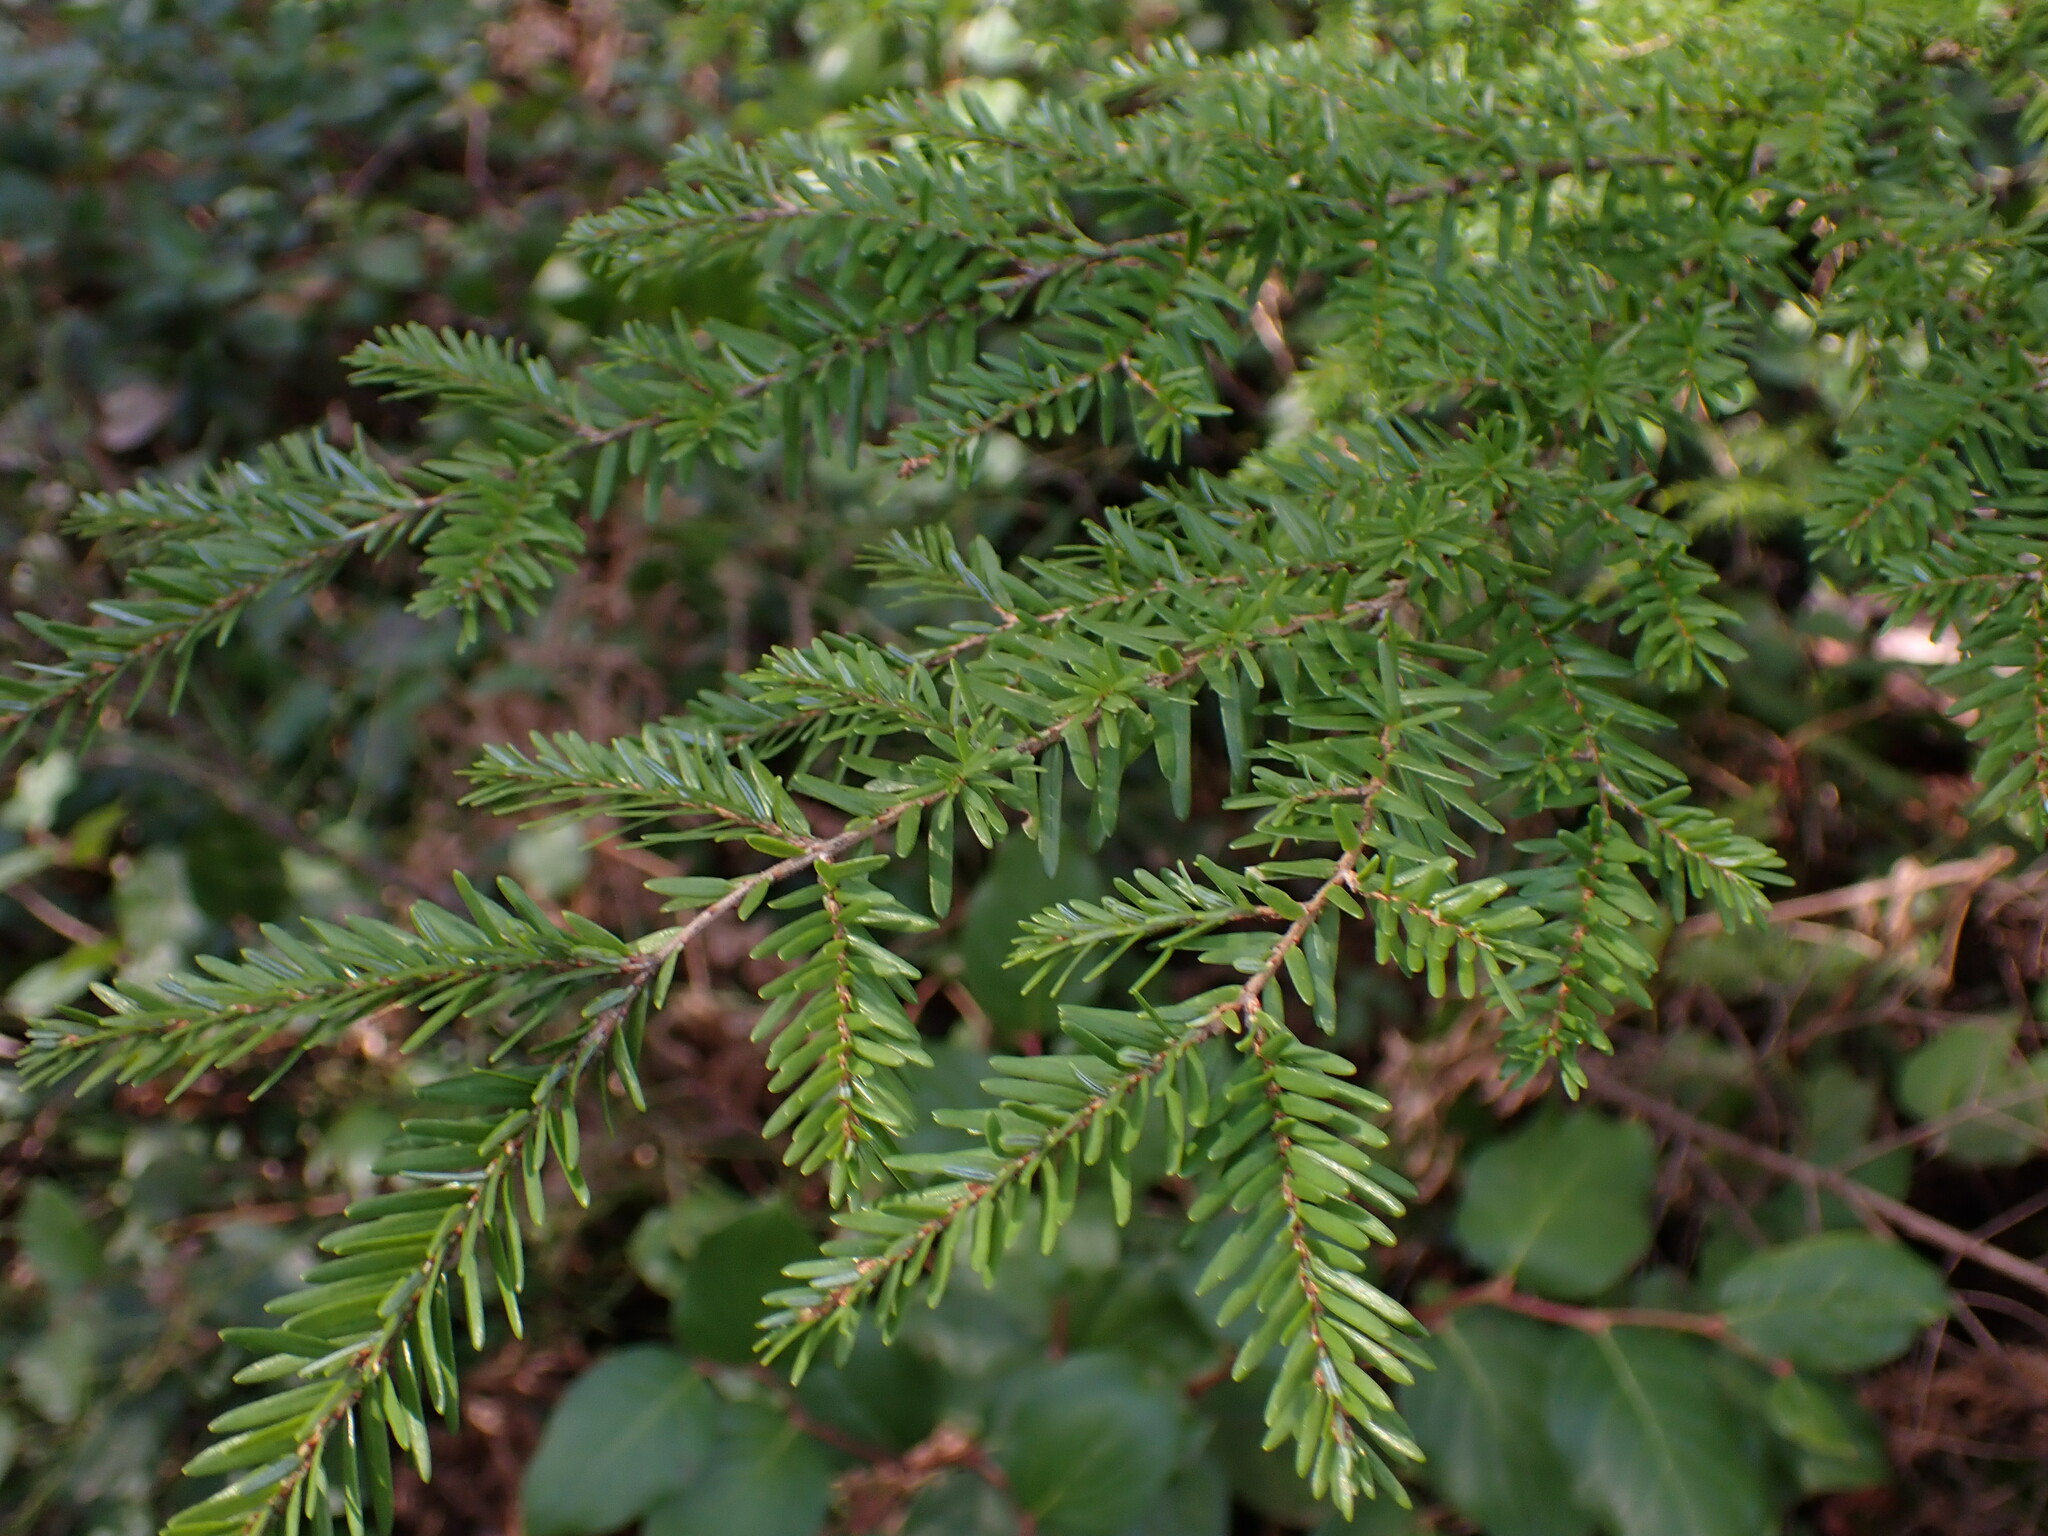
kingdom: Plantae
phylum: Tracheophyta
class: Pinopsida
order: Pinales
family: Pinaceae
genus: Tsuga
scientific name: Tsuga heterophylla
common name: Western hemlock
